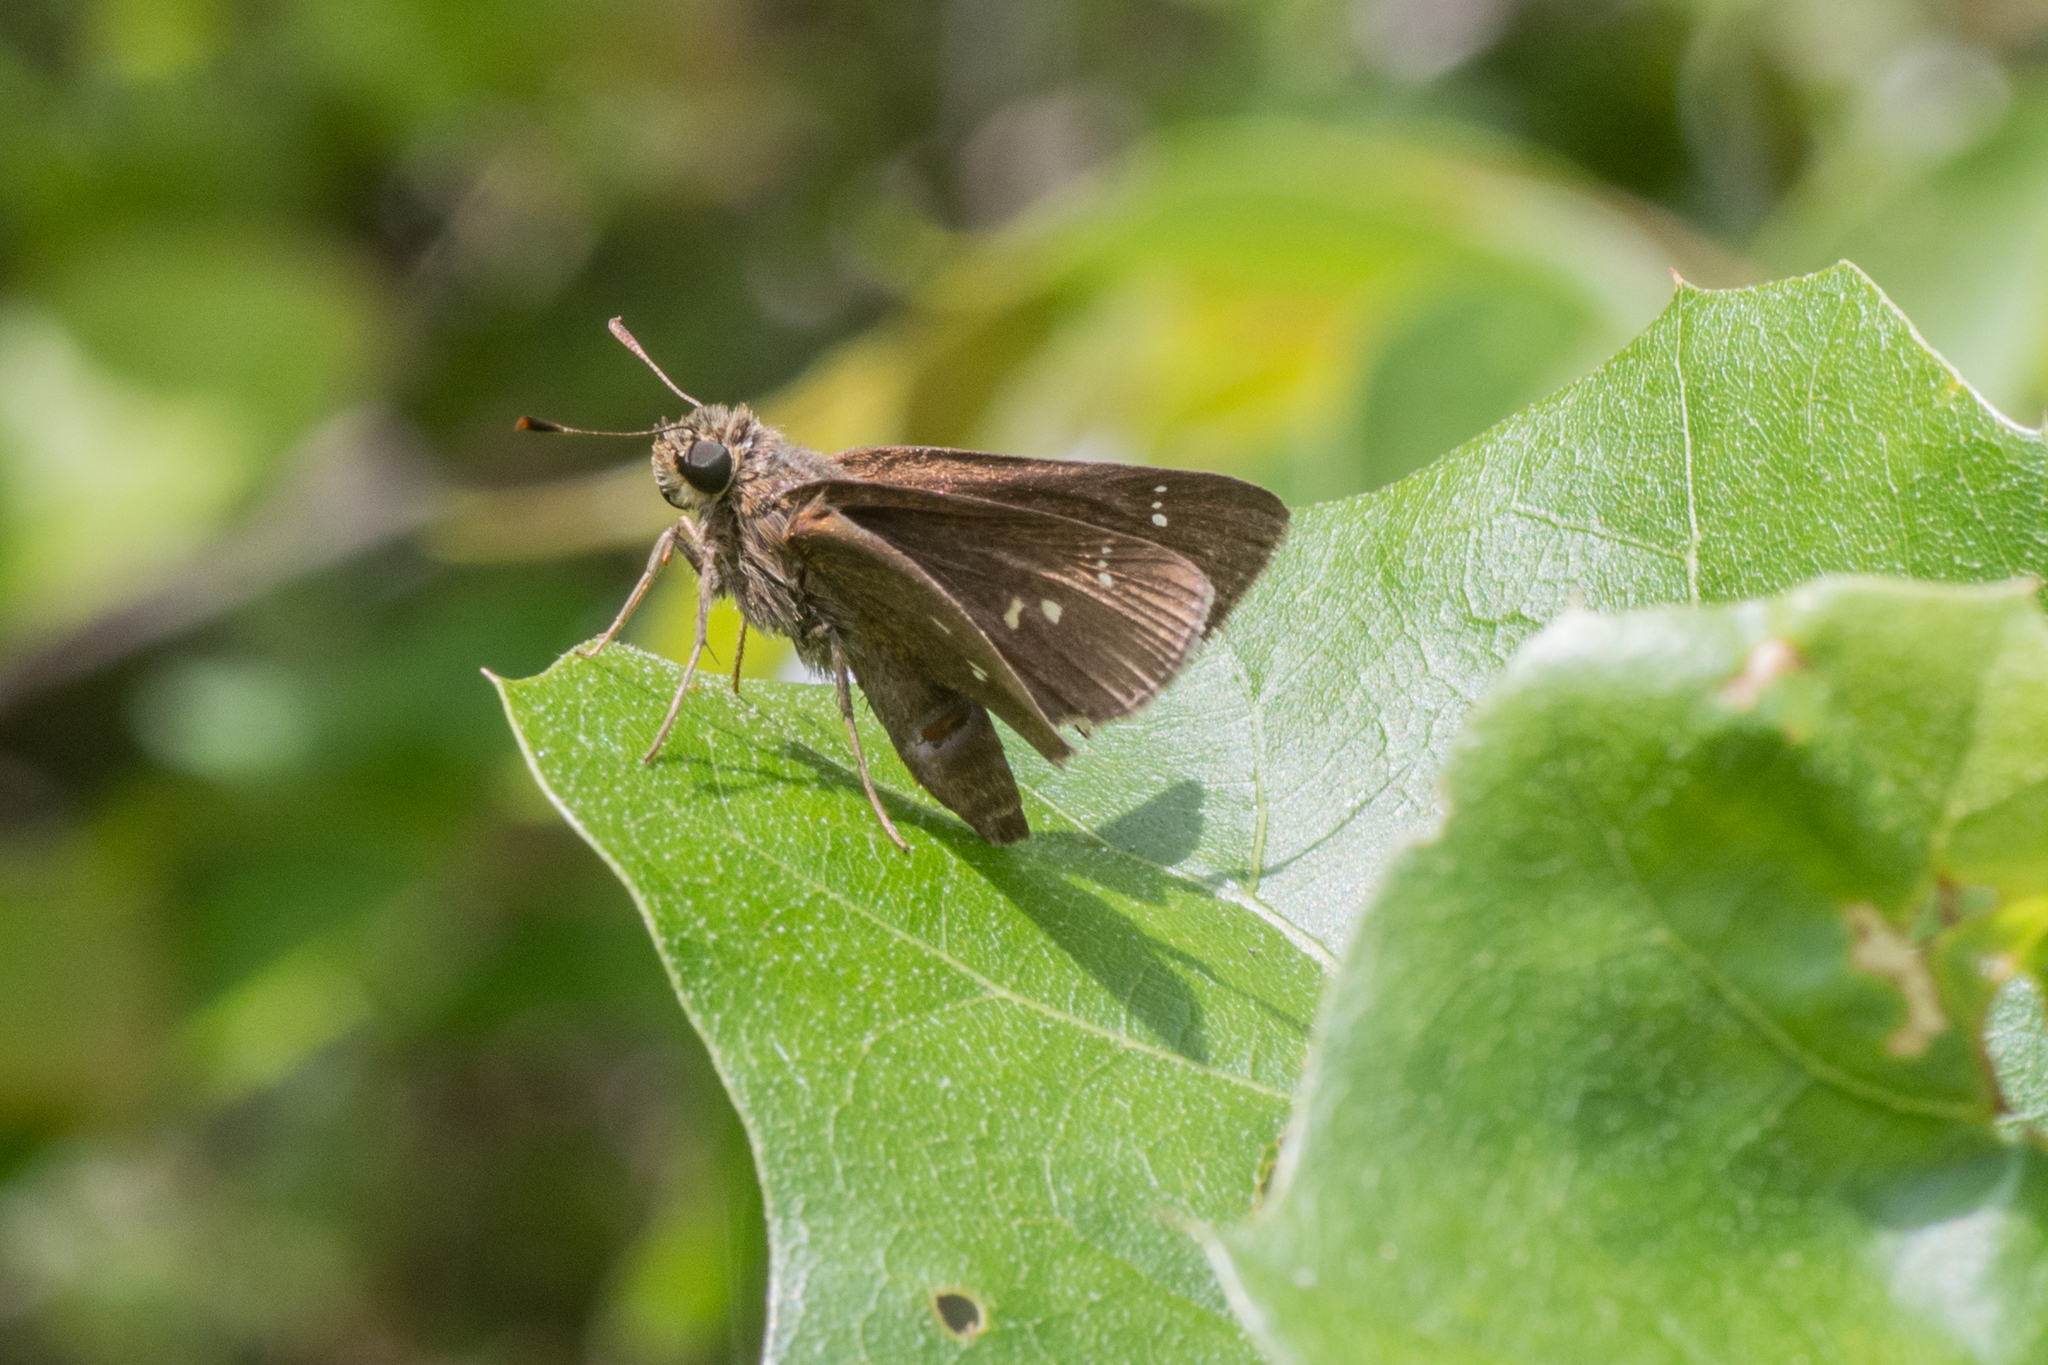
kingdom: Animalia
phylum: Arthropoda
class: Insecta
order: Lepidoptera
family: Hesperiidae
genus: Oligoria
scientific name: Oligoria maculata
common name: Twin-spot skipper
